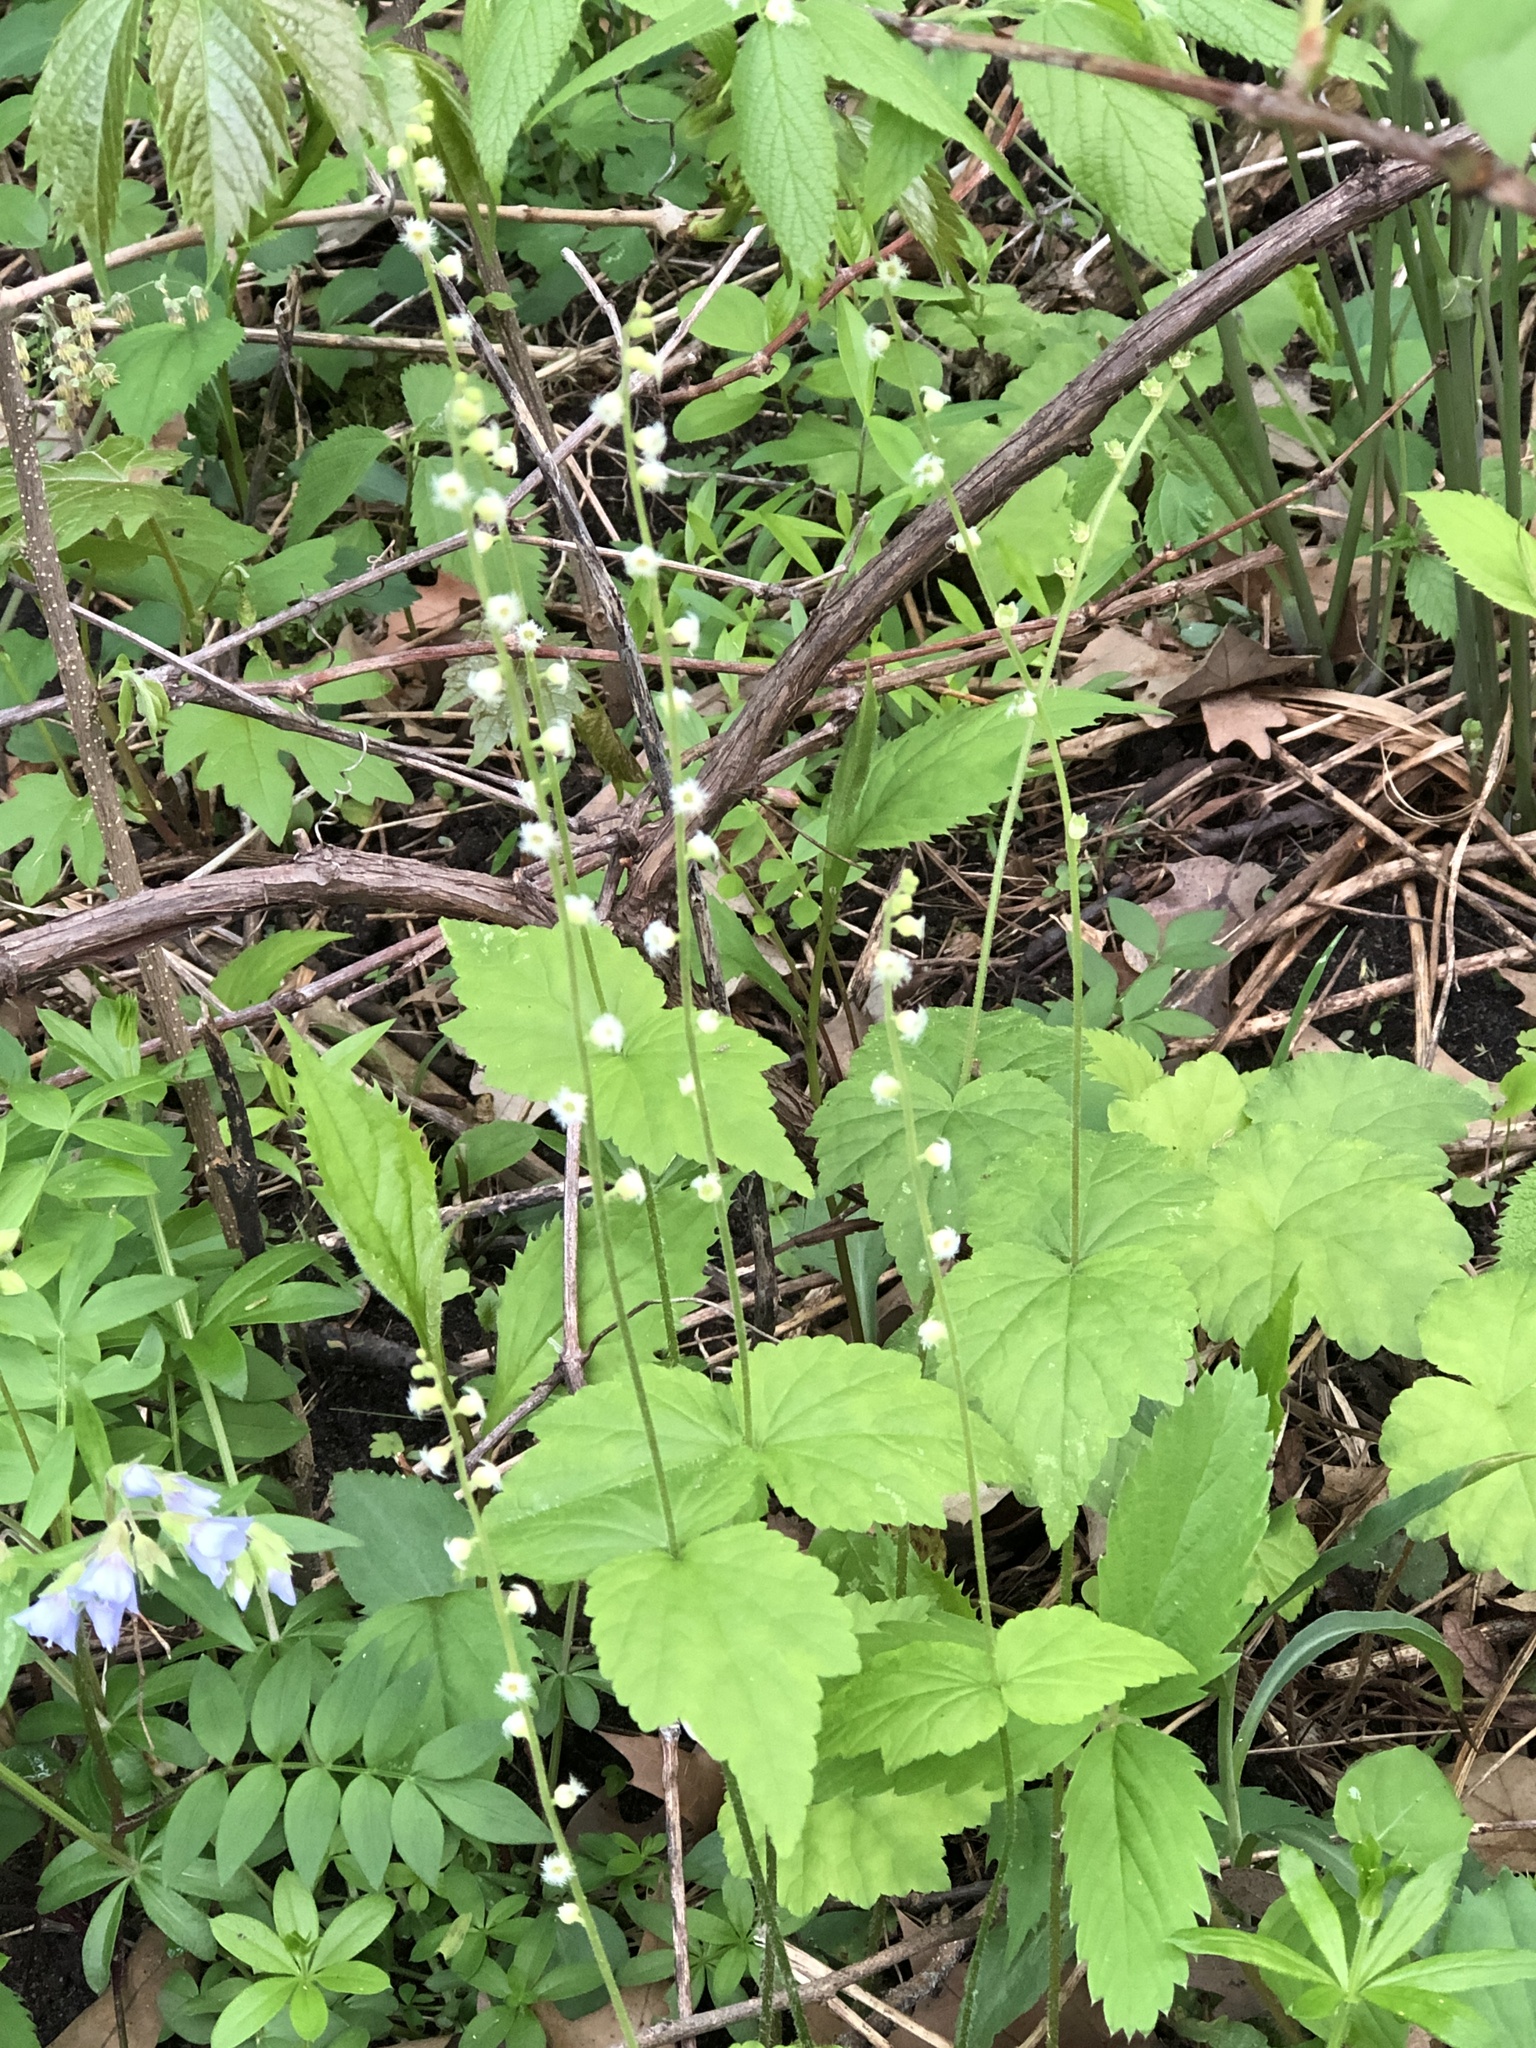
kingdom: Plantae
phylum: Tracheophyta
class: Magnoliopsida
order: Saxifragales
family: Saxifragaceae
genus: Mitella
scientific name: Mitella diphylla
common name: Coolwort
